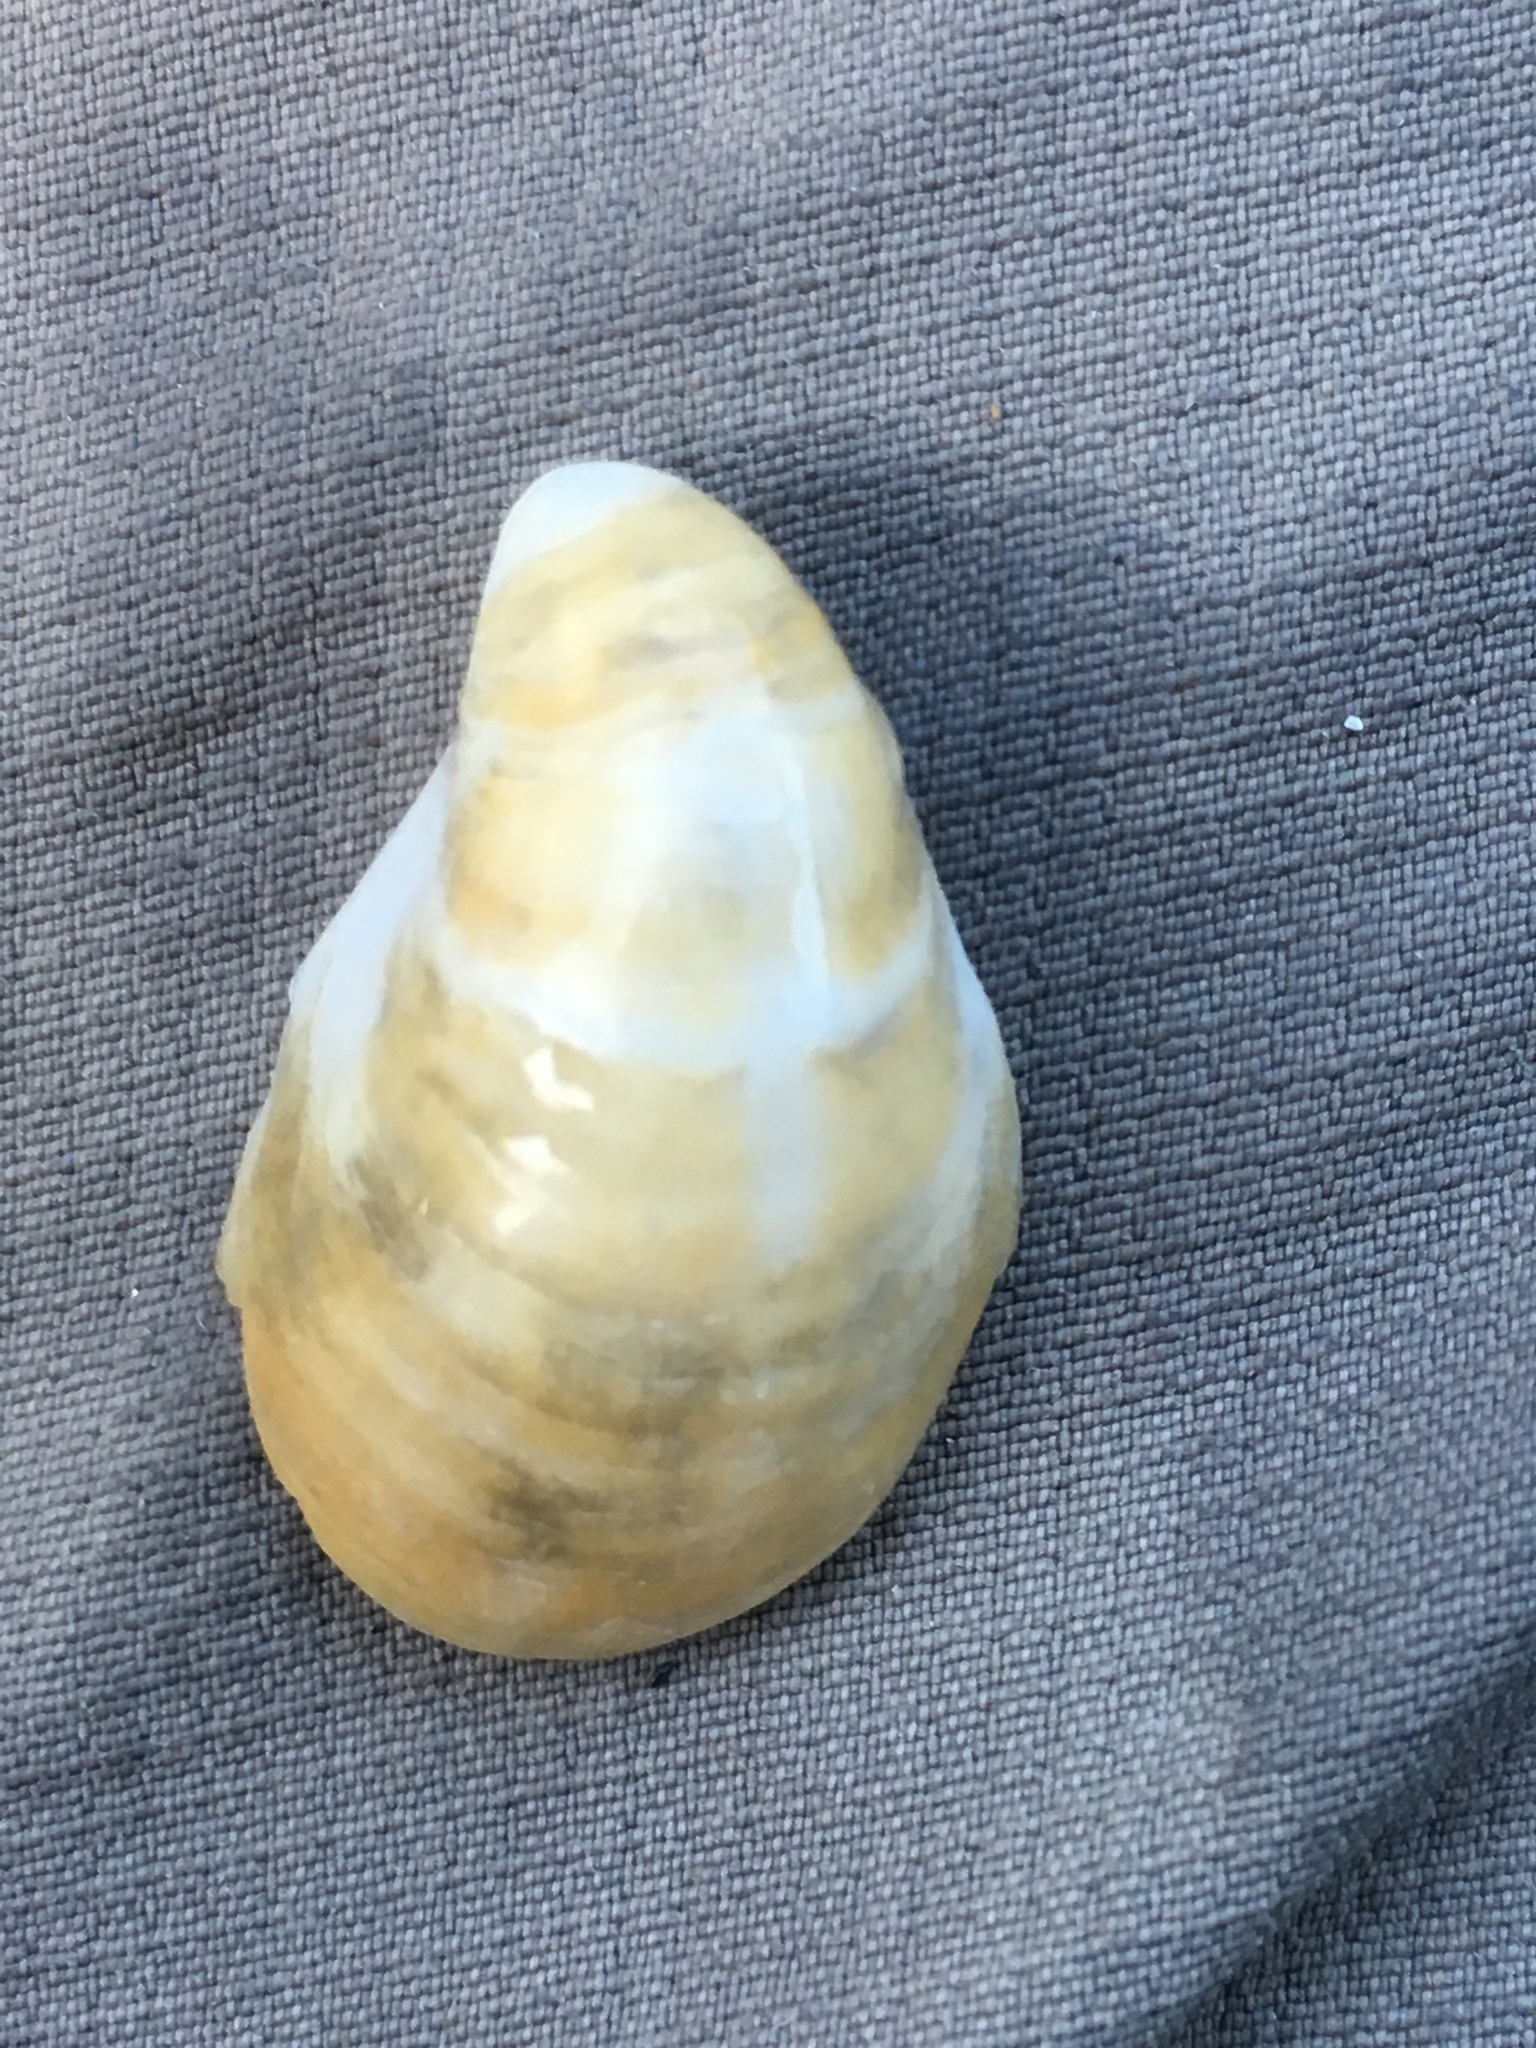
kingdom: Animalia
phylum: Mollusca
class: Gastropoda
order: Littorinimorpha
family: Calyptraeidae
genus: Crepidula
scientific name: Crepidula fornicata
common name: Slipper limpet
